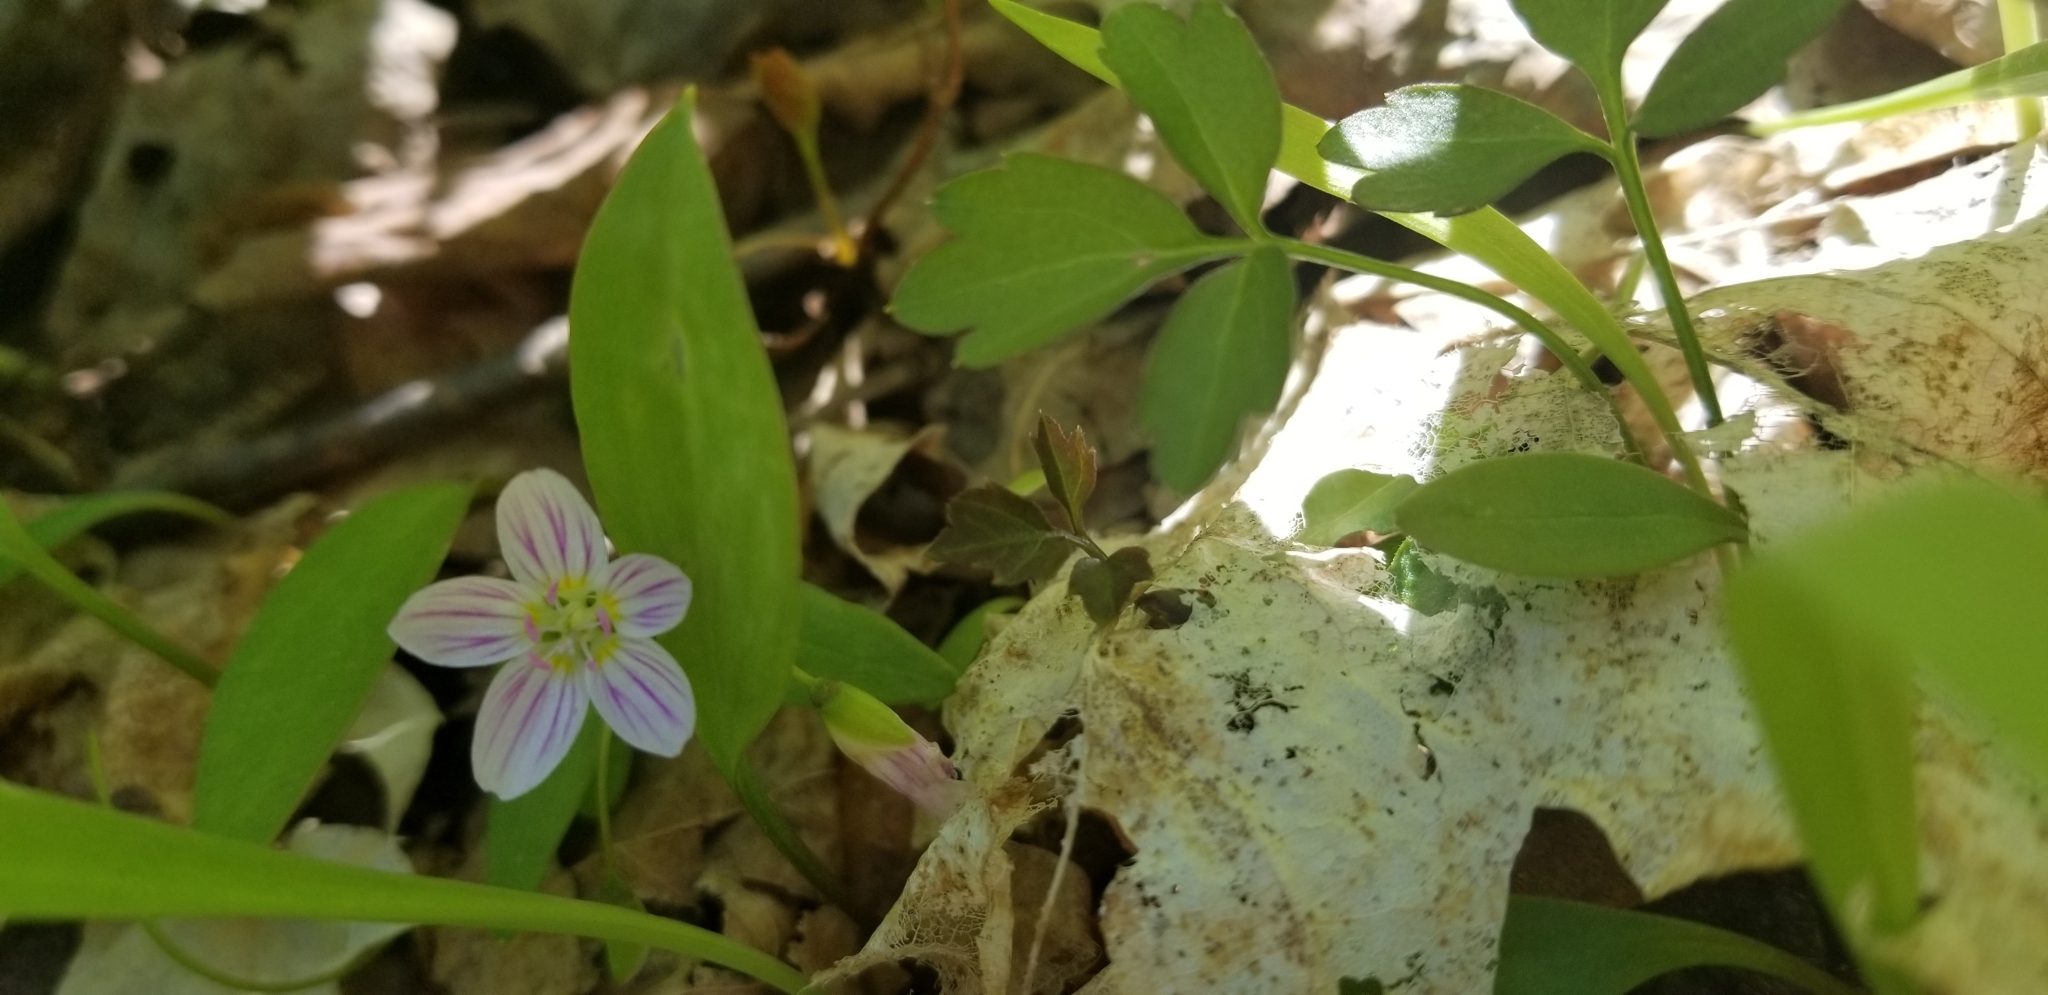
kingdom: Plantae
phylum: Tracheophyta
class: Magnoliopsida
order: Caryophyllales
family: Montiaceae
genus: Claytonia
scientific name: Claytonia caroliniana
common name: Carolina spring beauty
